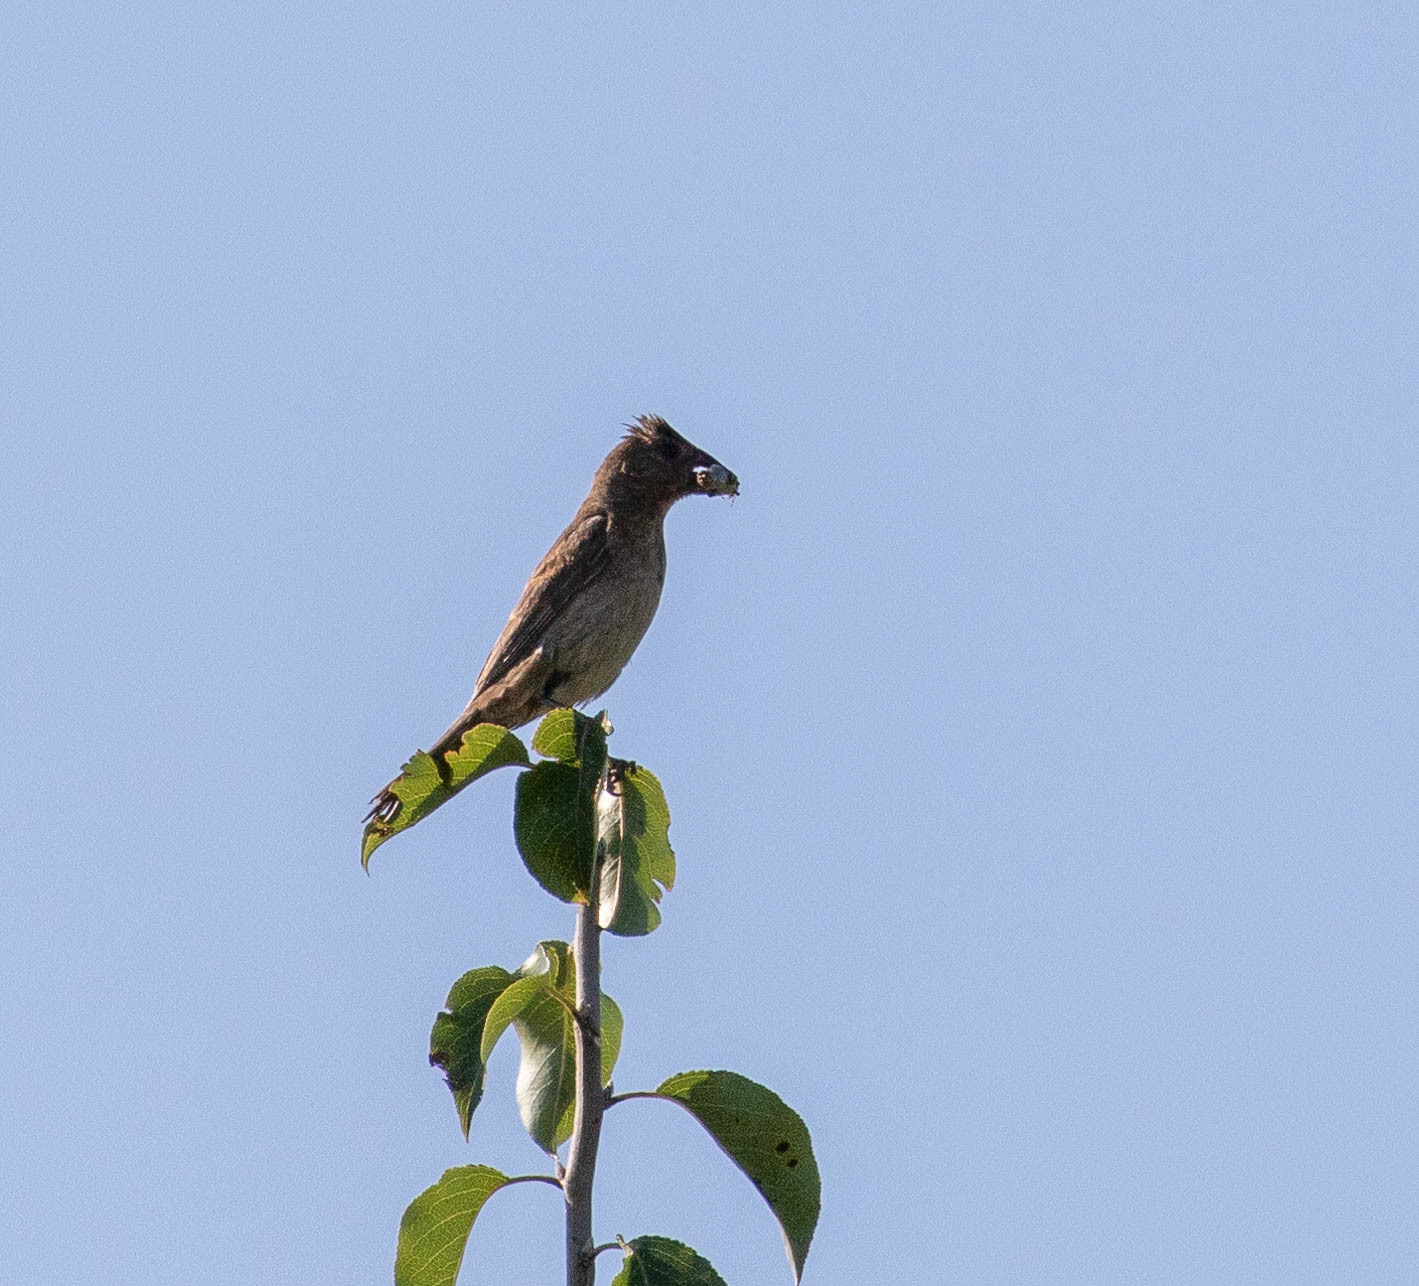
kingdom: Animalia
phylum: Chordata
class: Aves
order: Passeriformes
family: Cardinalidae
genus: Passerina
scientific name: Passerina caerulea
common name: Blue grosbeak
